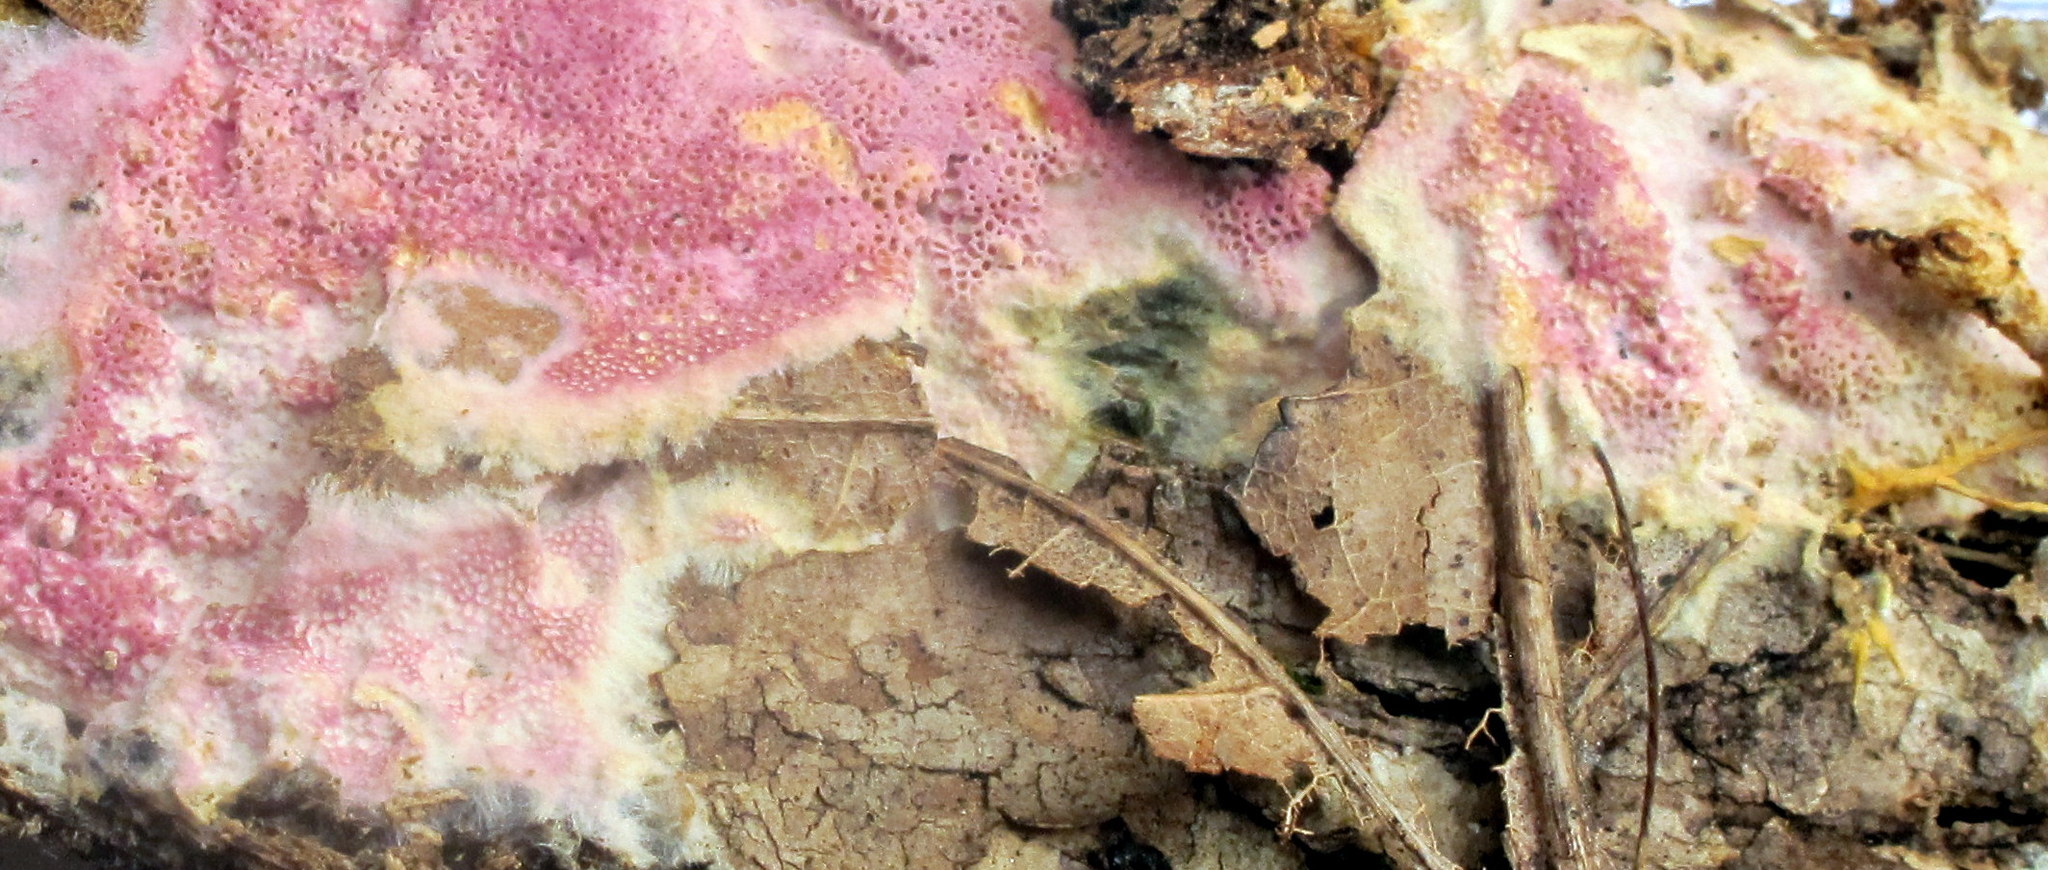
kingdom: Fungi
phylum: Basidiomycota
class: Agaricomycetes
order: Polyporales
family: Irpicaceae
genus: Ceriporia
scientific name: Ceriporia tarda
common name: Mauve waxpore
